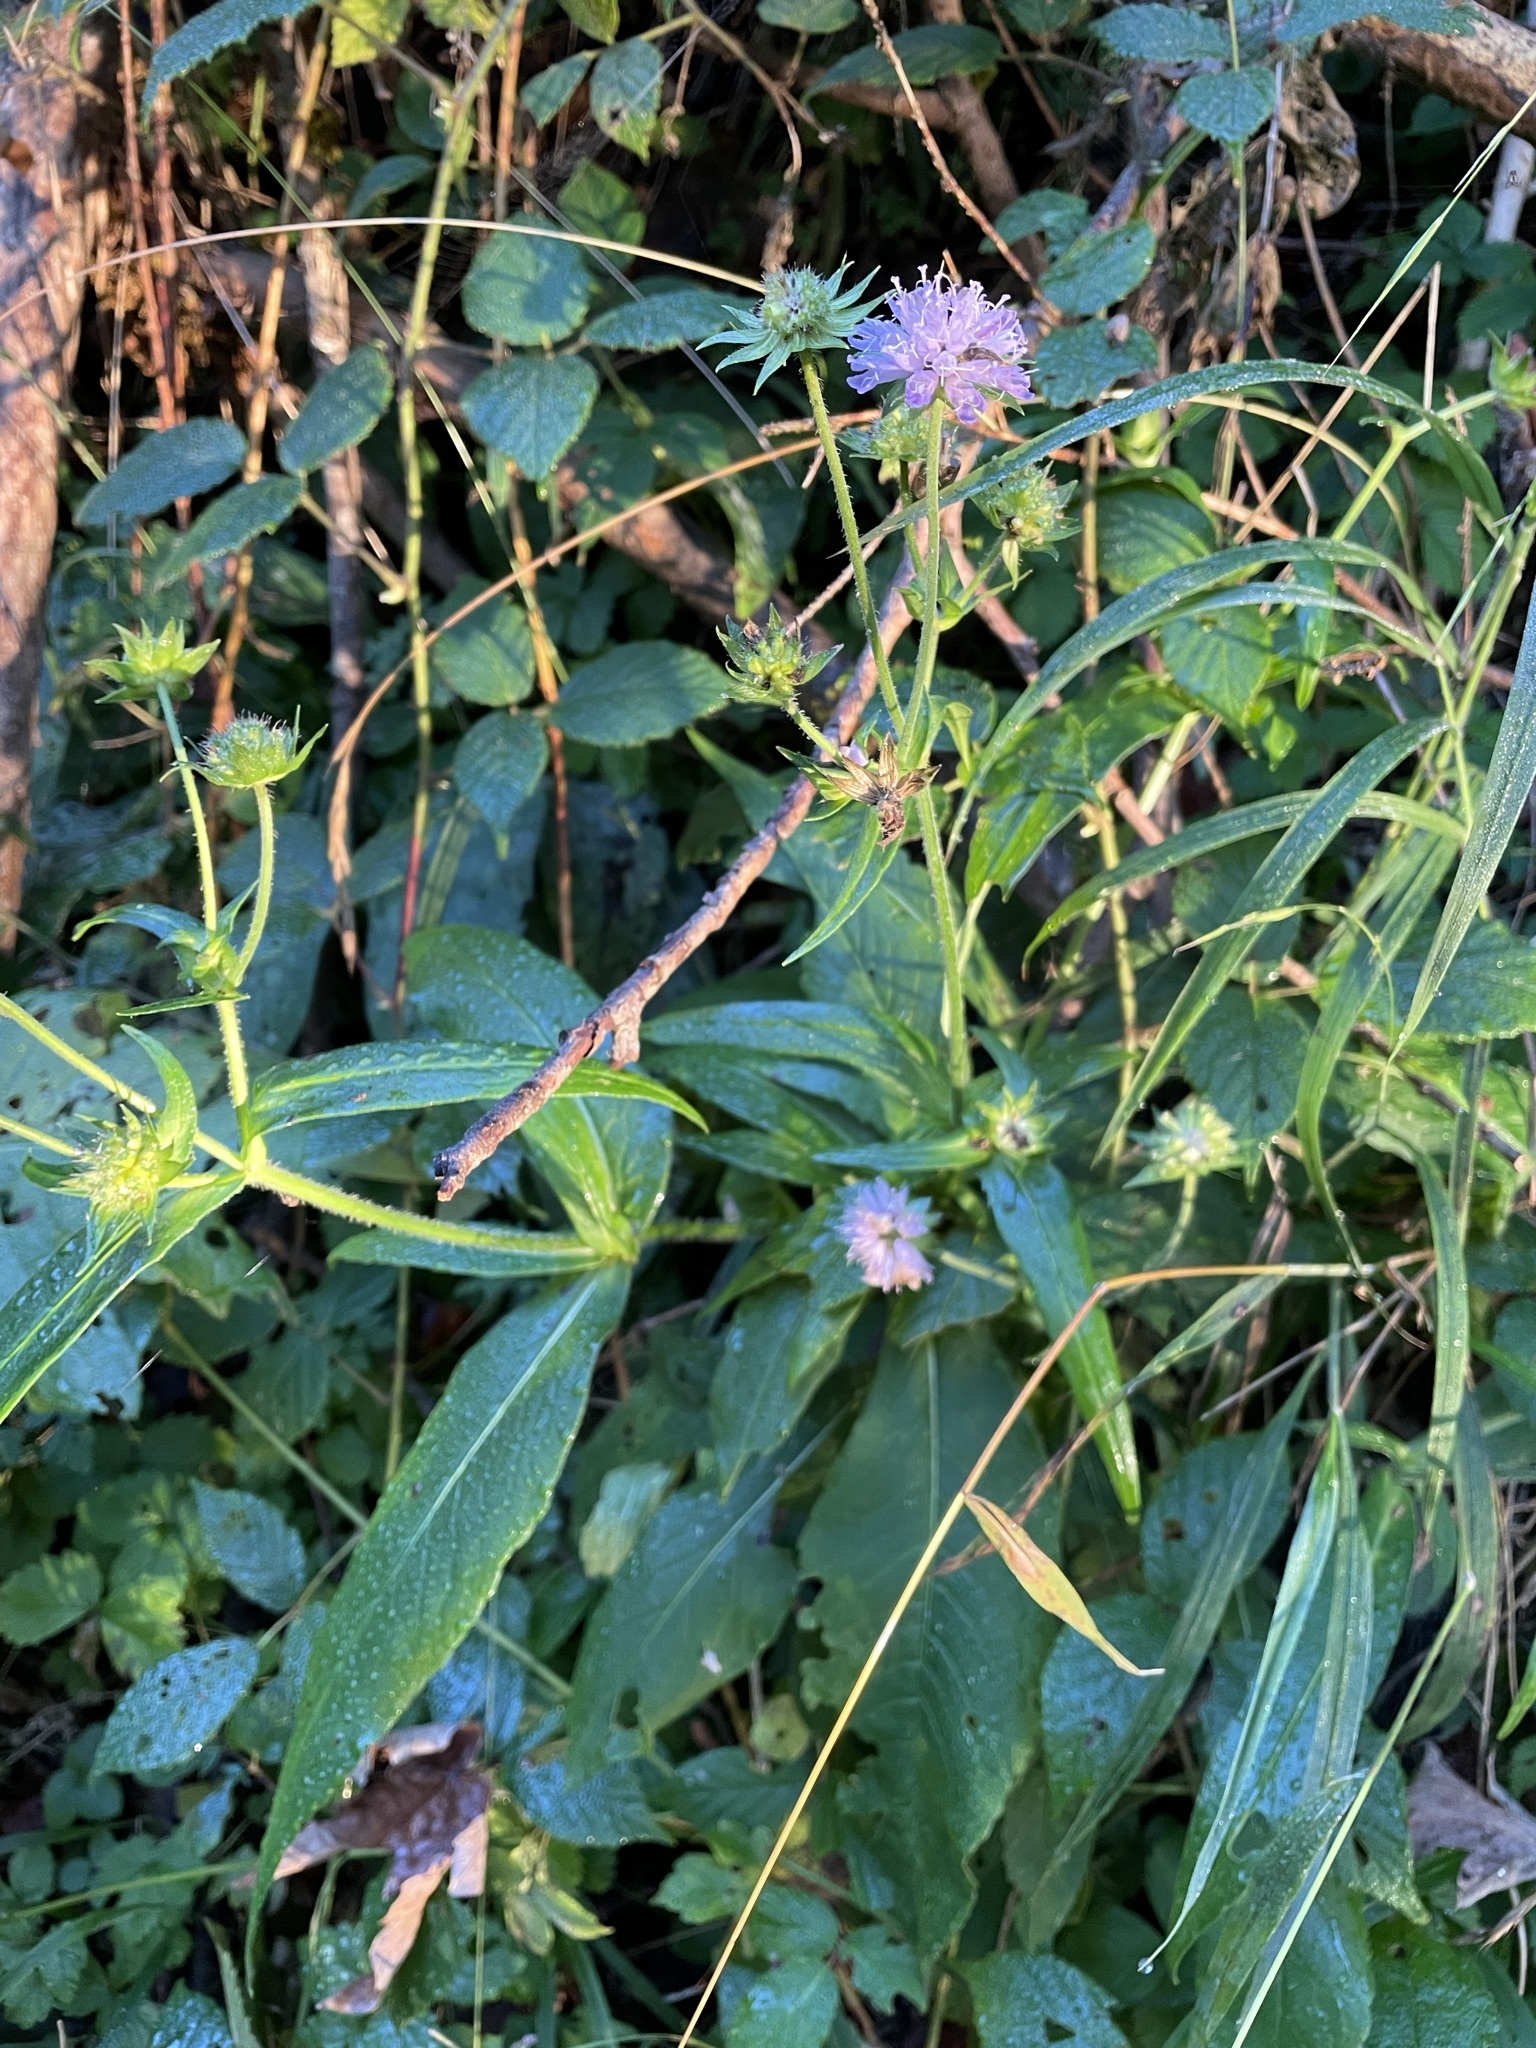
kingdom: Plantae
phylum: Tracheophyta
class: Magnoliopsida
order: Dipsacales
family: Caprifoliaceae
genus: Knautia
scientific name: Knautia dipsacifolia
